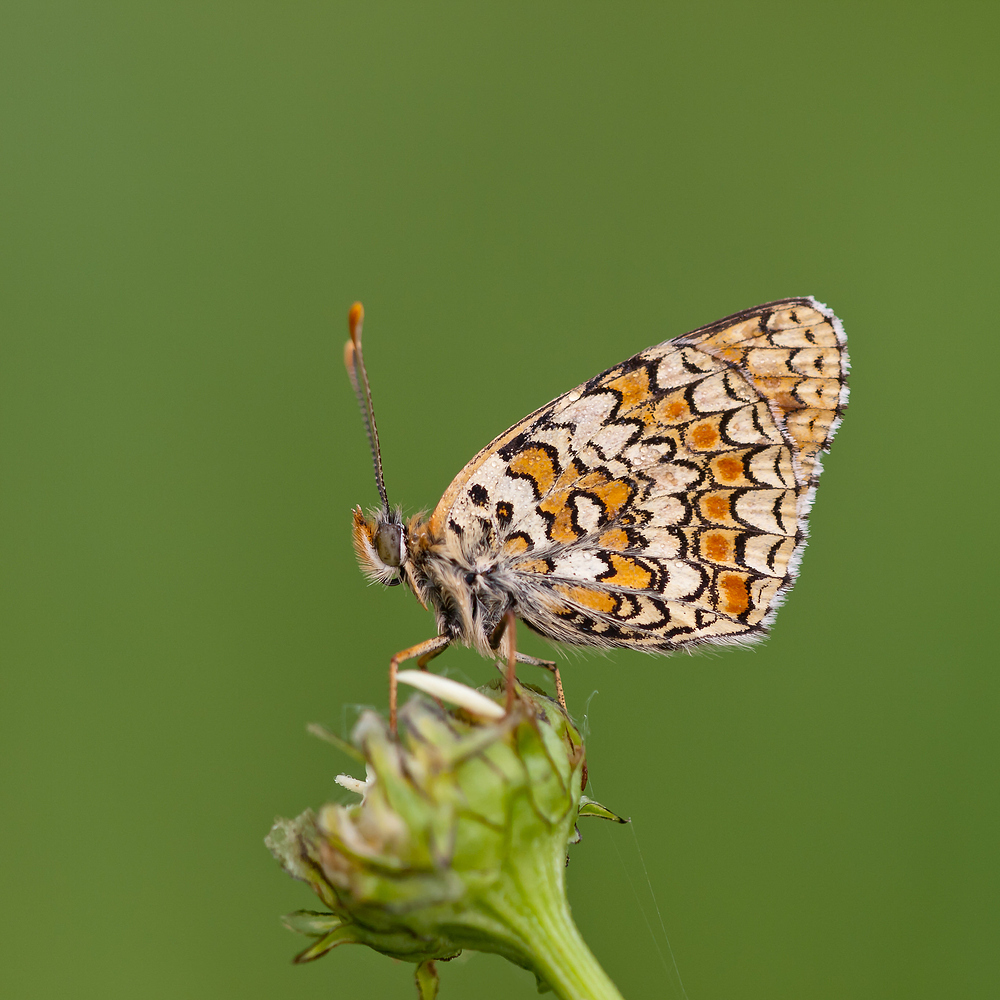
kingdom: Animalia
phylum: Arthropoda
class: Insecta
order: Lepidoptera
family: Nymphalidae
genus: Melitaea
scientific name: Melitaea phoebe
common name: Knapweed fritillary
